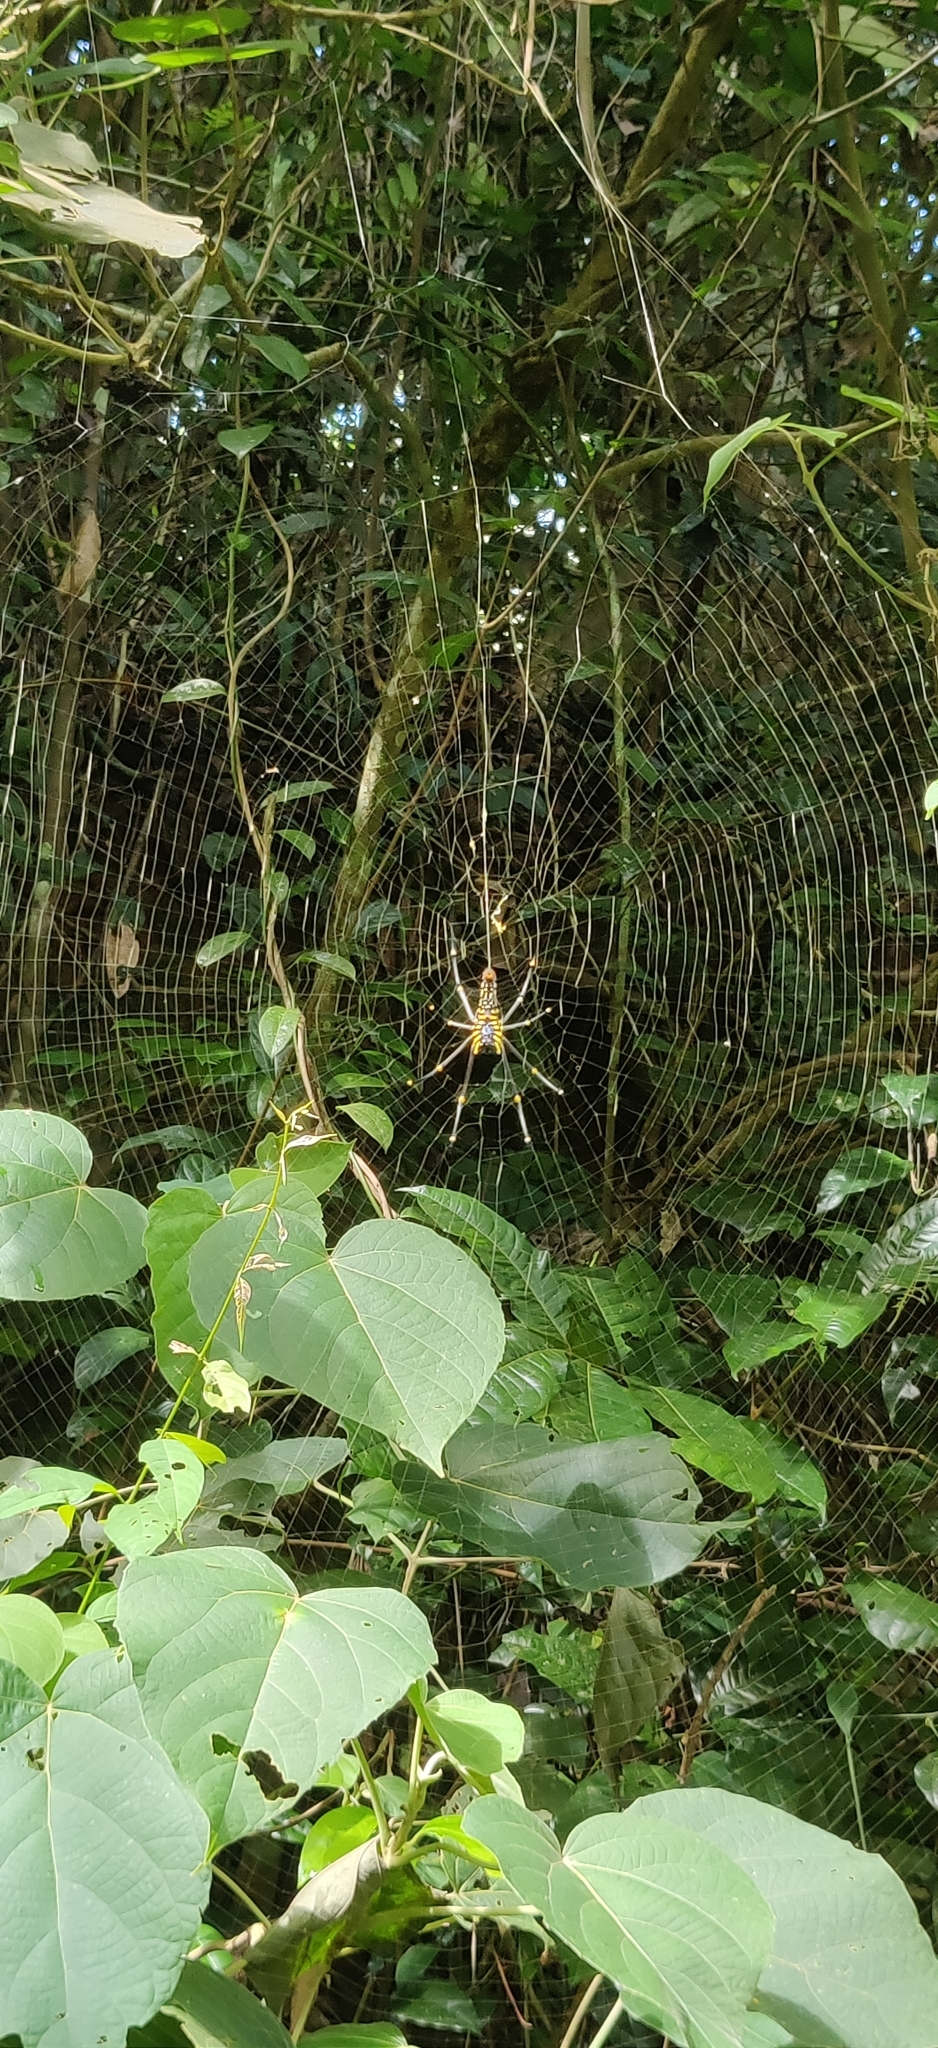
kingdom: Animalia
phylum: Arthropoda
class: Arachnida
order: Araneae
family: Araneidae
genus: Nephila
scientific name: Nephila pilipes
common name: Giant golden orb weaver
